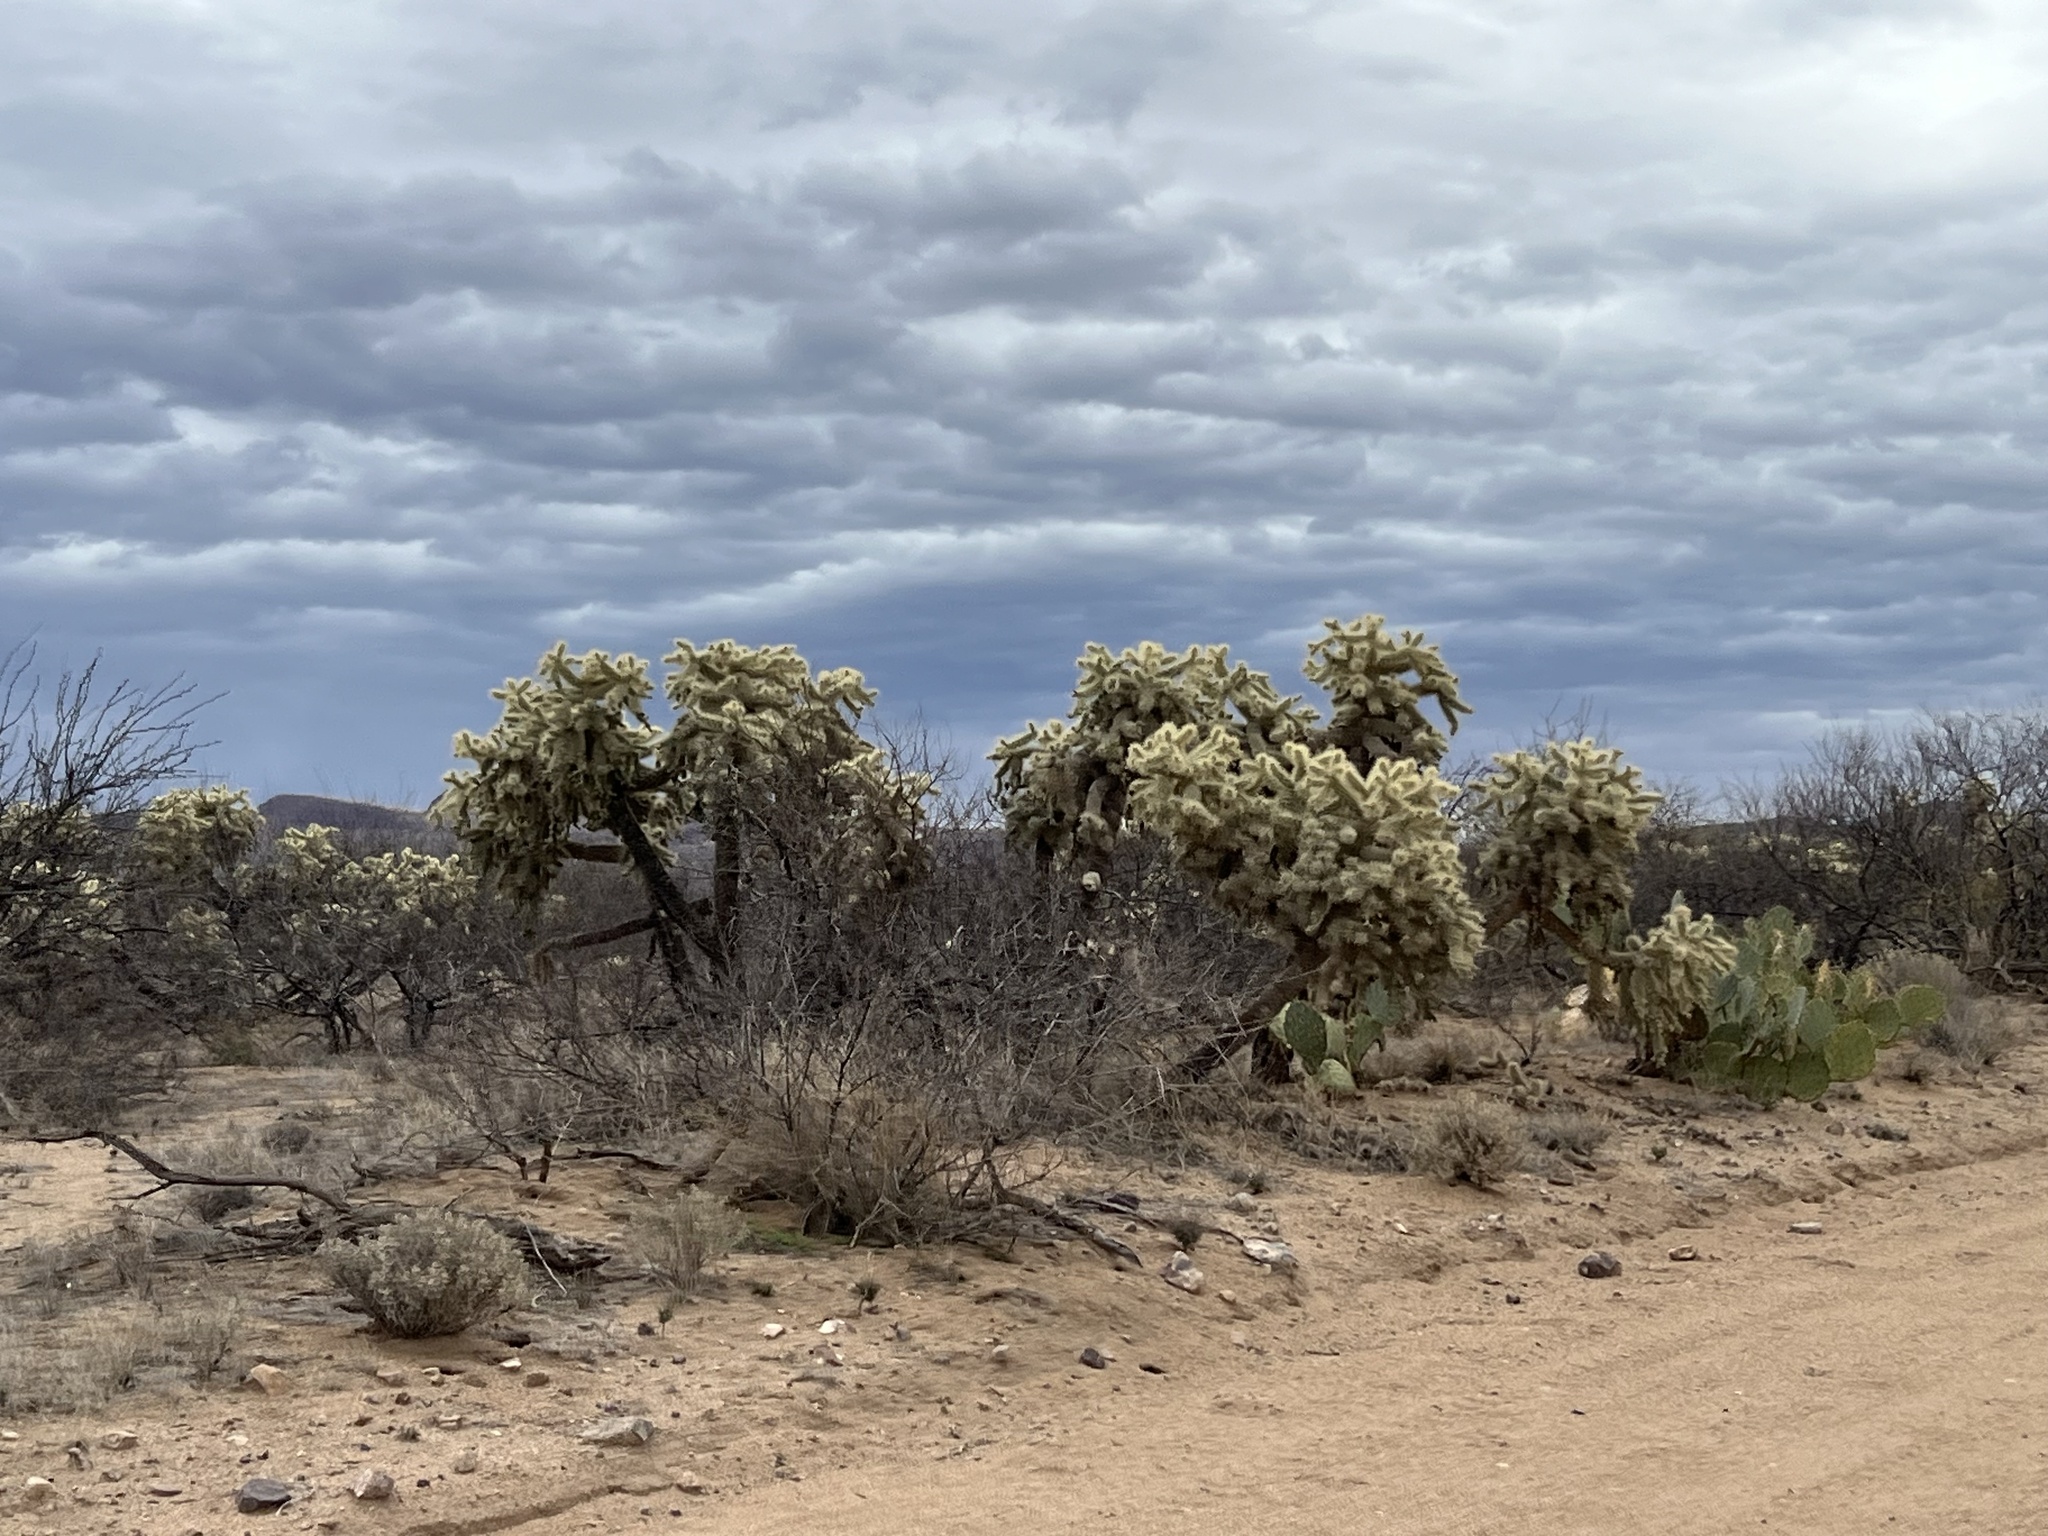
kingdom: Plantae
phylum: Tracheophyta
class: Magnoliopsida
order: Caryophyllales
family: Cactaceae
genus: Cylindropuntia
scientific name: Cylindropuntia fulgida
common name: Jumping cholla
